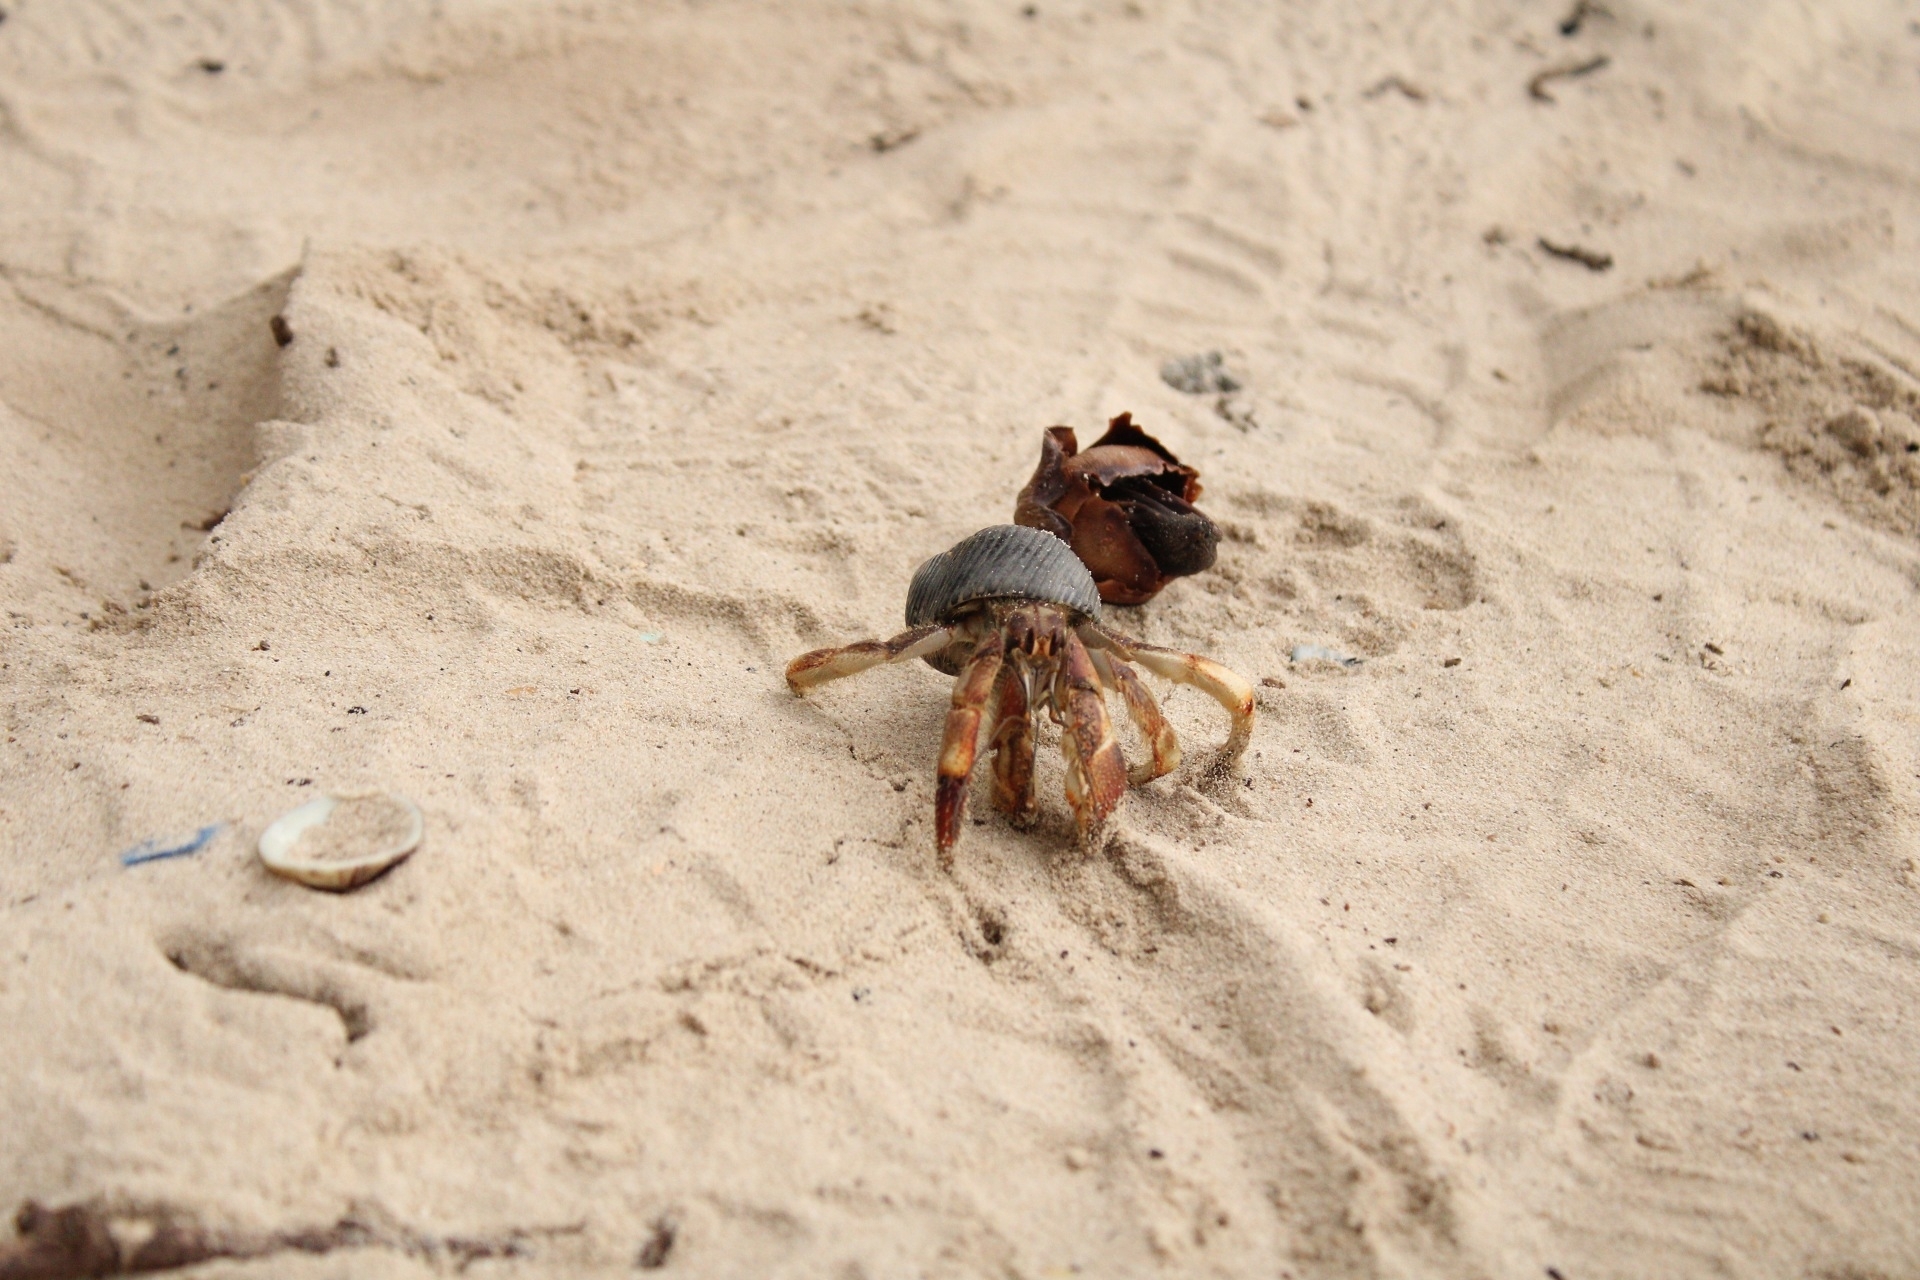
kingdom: Animalia
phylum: Arthropoda
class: Malacostraca
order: Decapoda
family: Coenobitidae
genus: Coenobita
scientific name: Coenobita compressus
